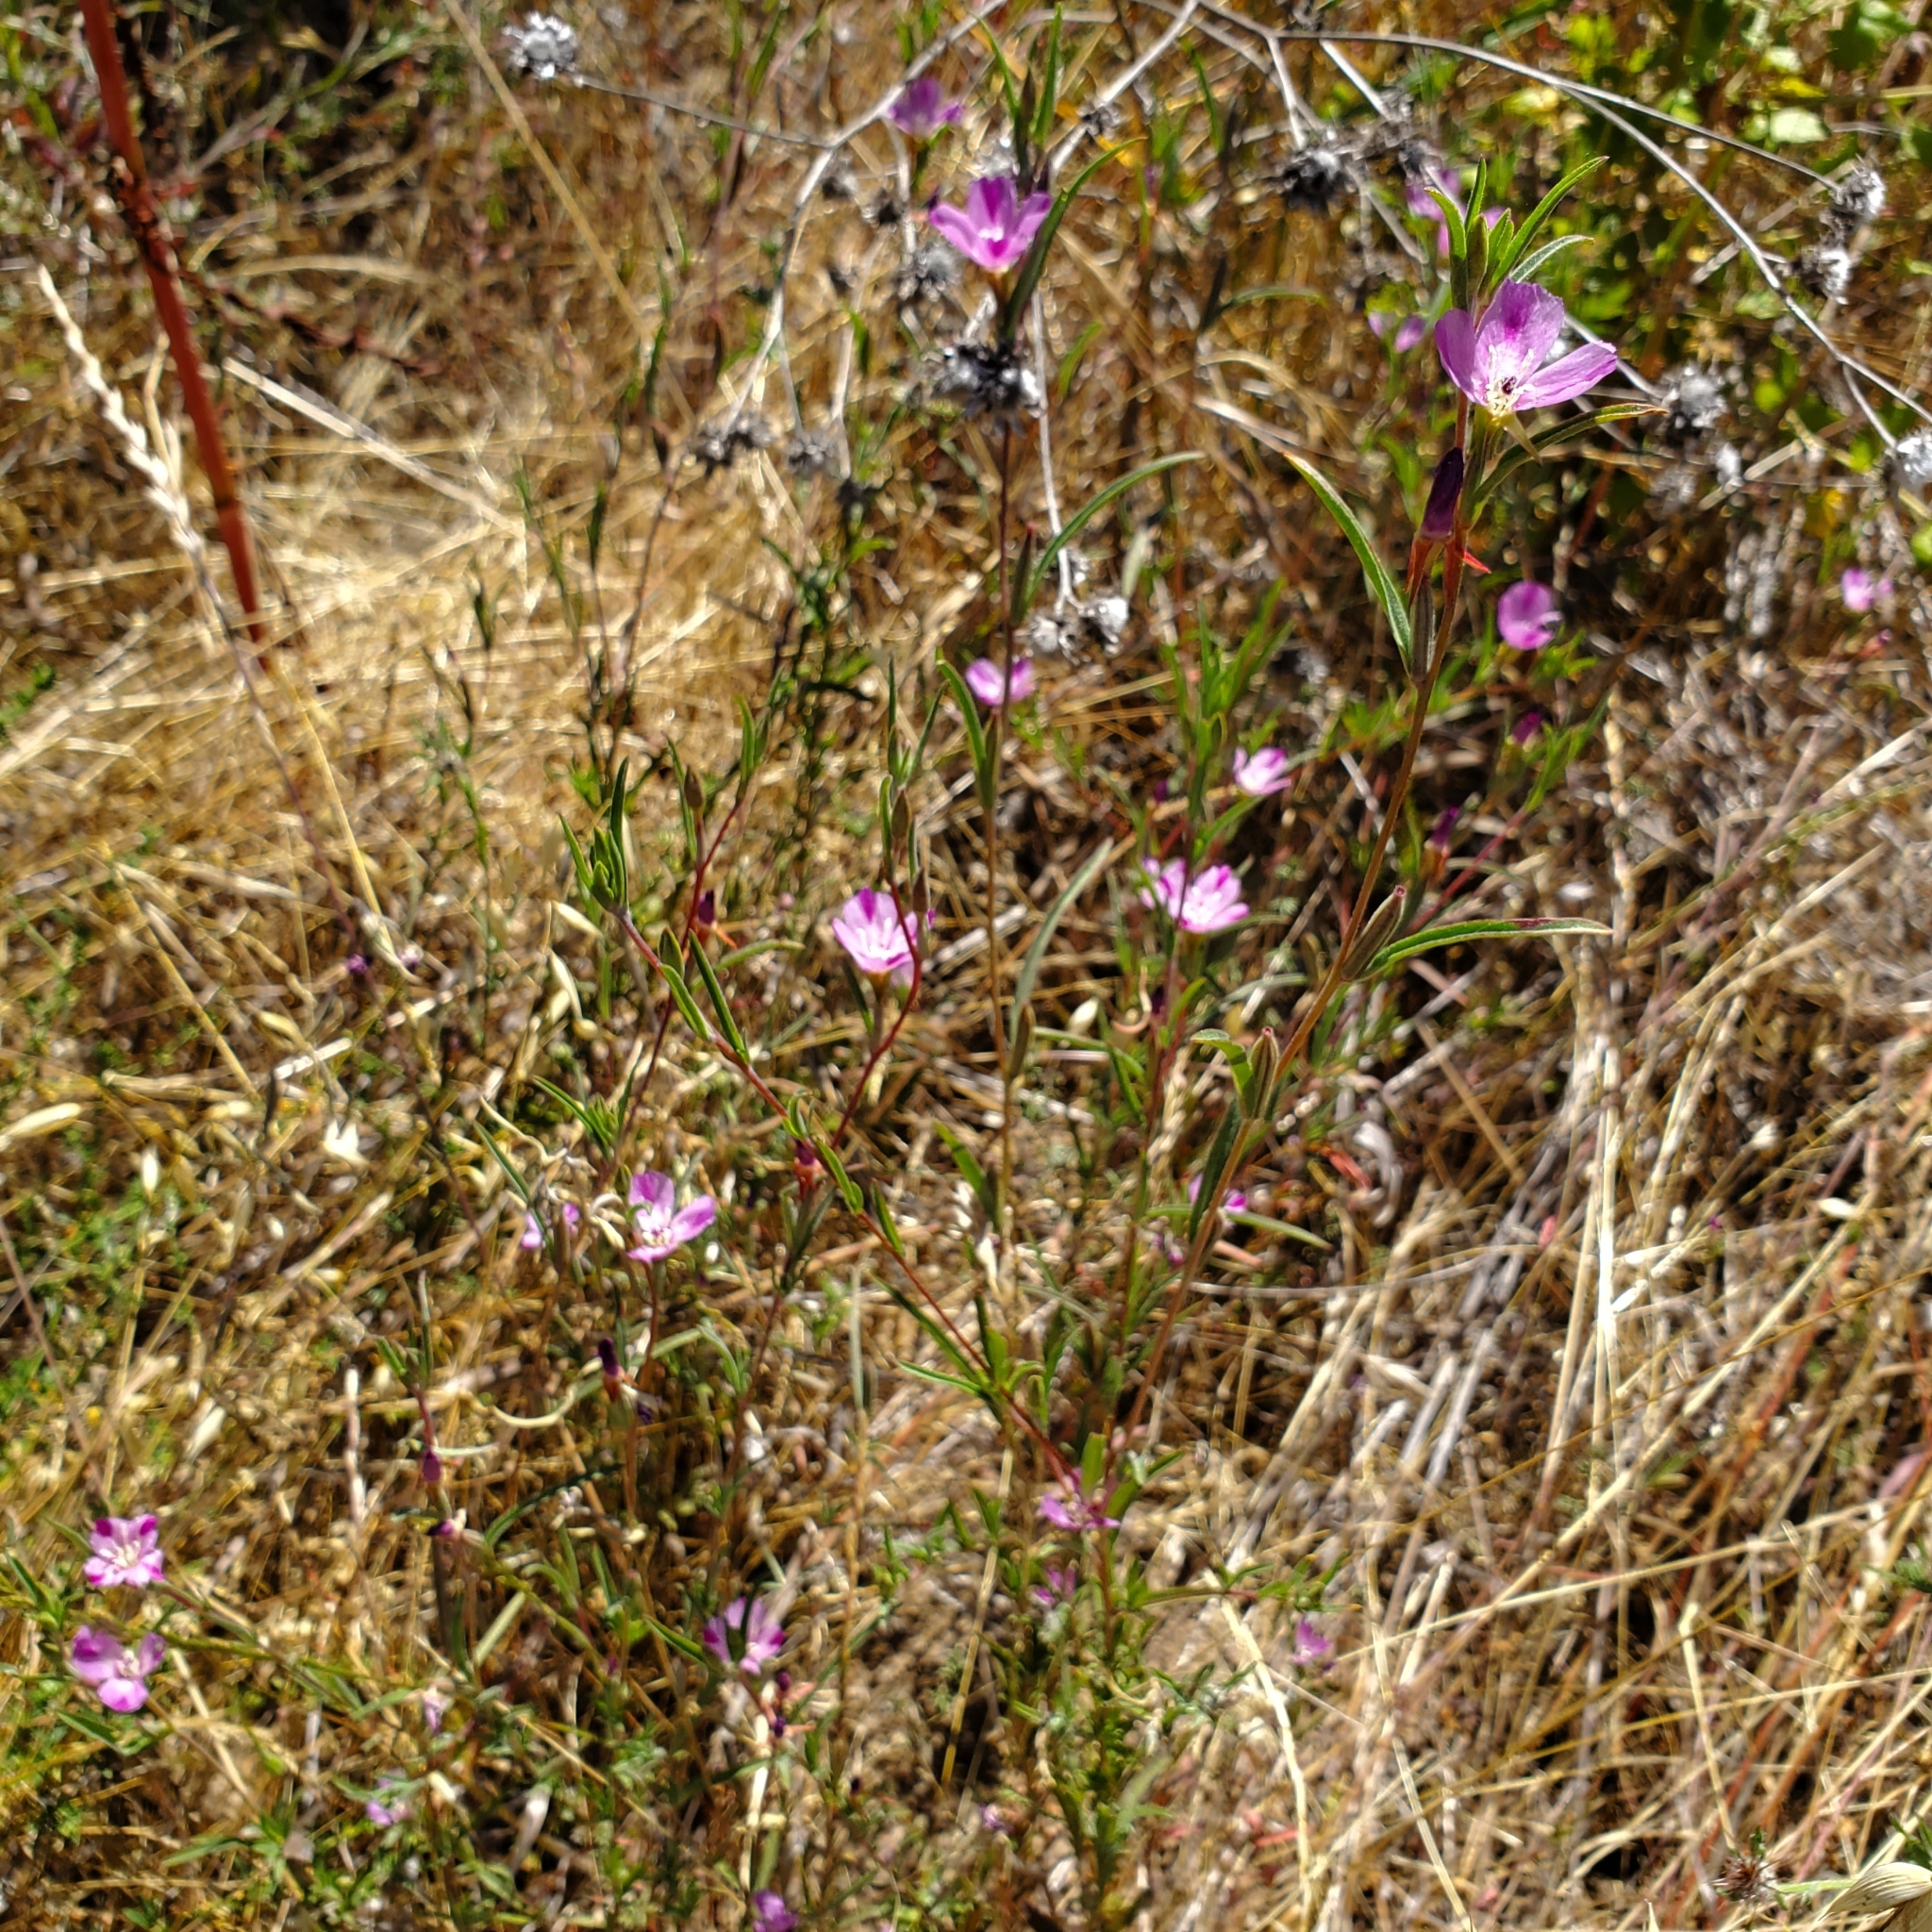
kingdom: Plantae
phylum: Tracheophyta
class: Magnoliopsida
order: Myrtales
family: Onagraceae
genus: Clarkia
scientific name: Clarkia purpurea
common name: Purple clarkia
